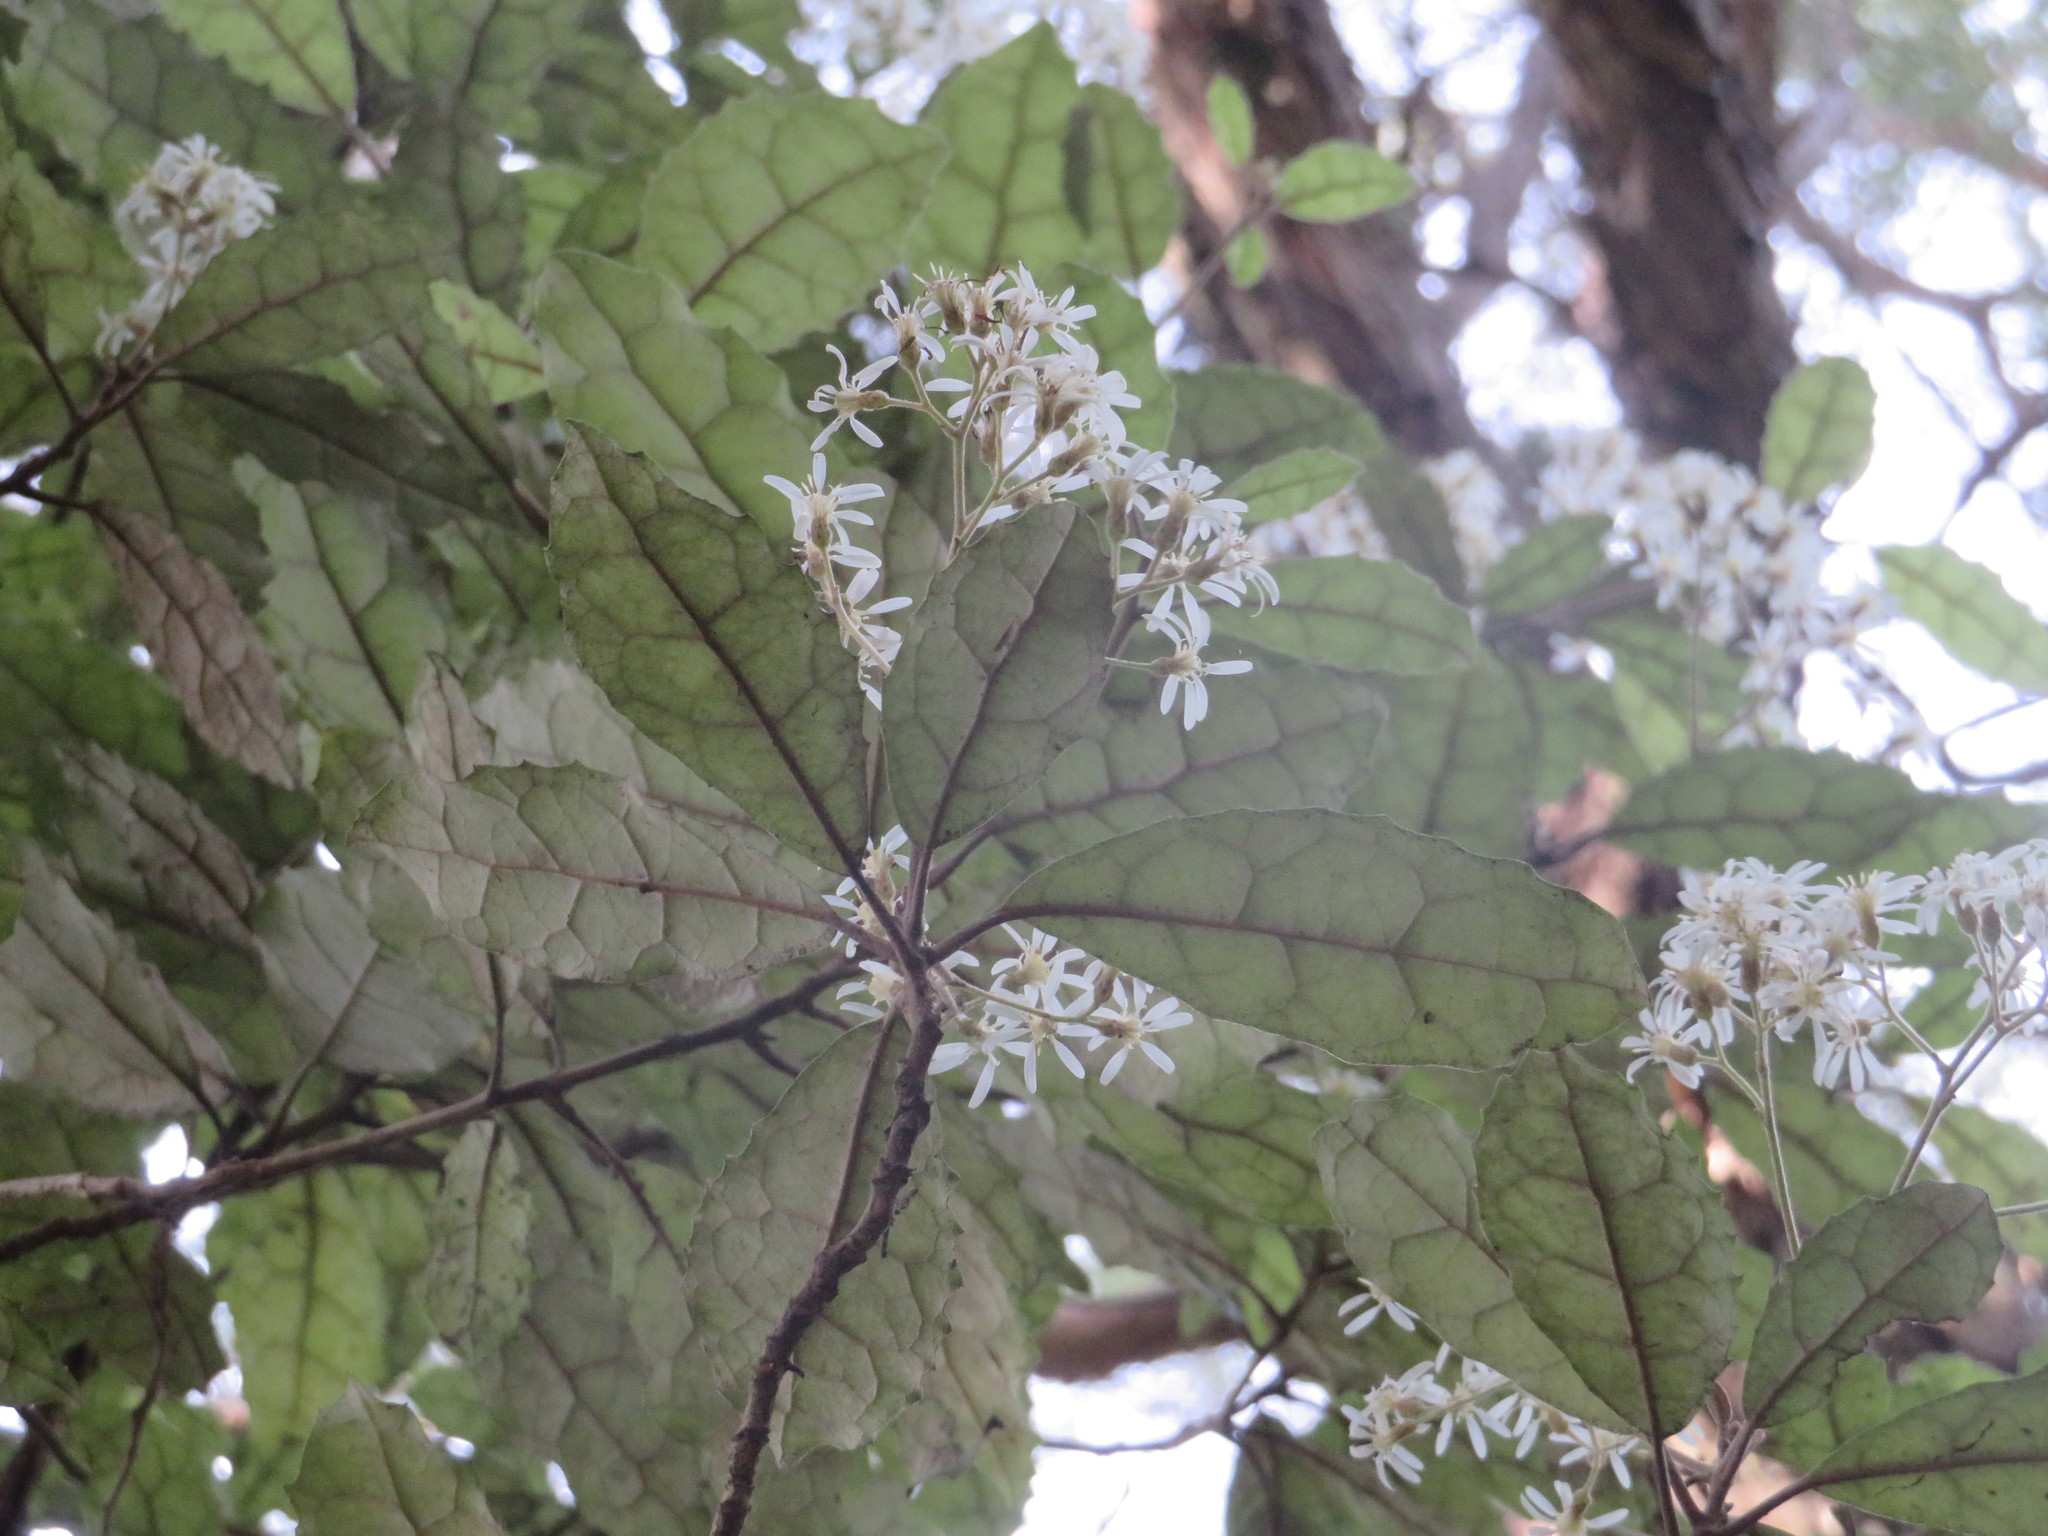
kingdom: Plantae
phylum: Tracheophyta
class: Magnoliopsida
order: Asterales
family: Asteraceae
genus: Olearia
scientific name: Olearia rani
